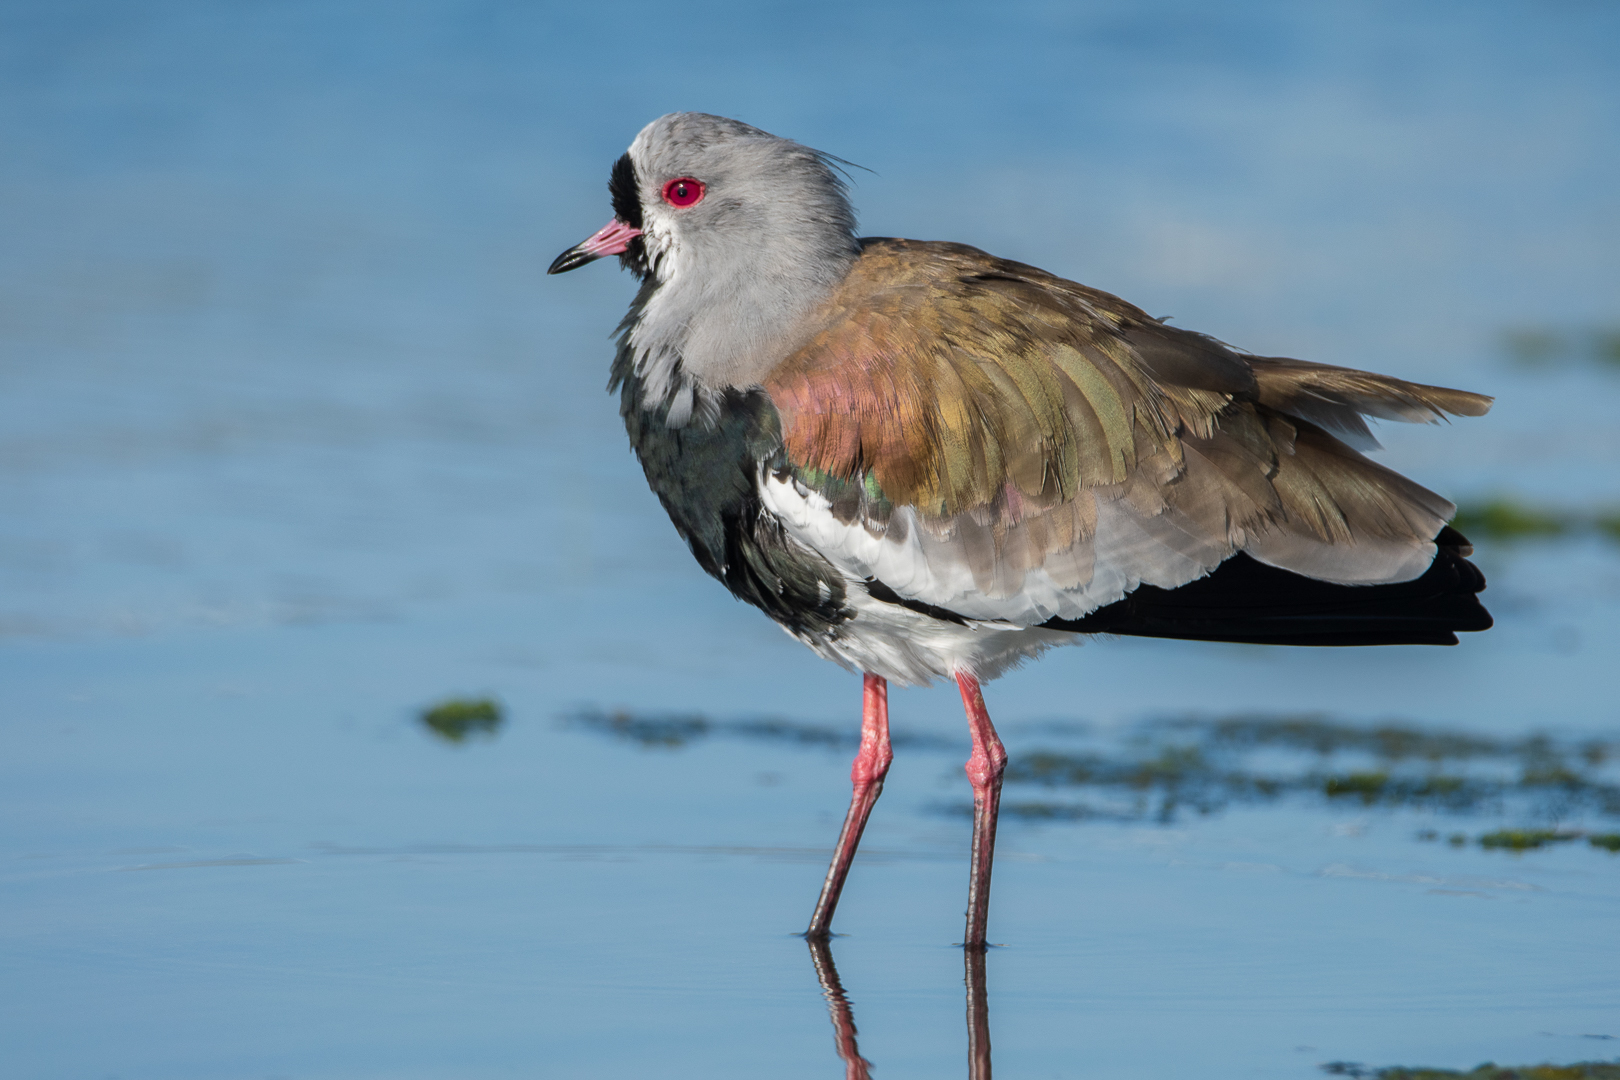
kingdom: Animalia
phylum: Chordata
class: Aves
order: Charadriiformes
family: Charadriidae
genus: Vanellus
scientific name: Vanellus chilensis
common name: Southern lapwing
